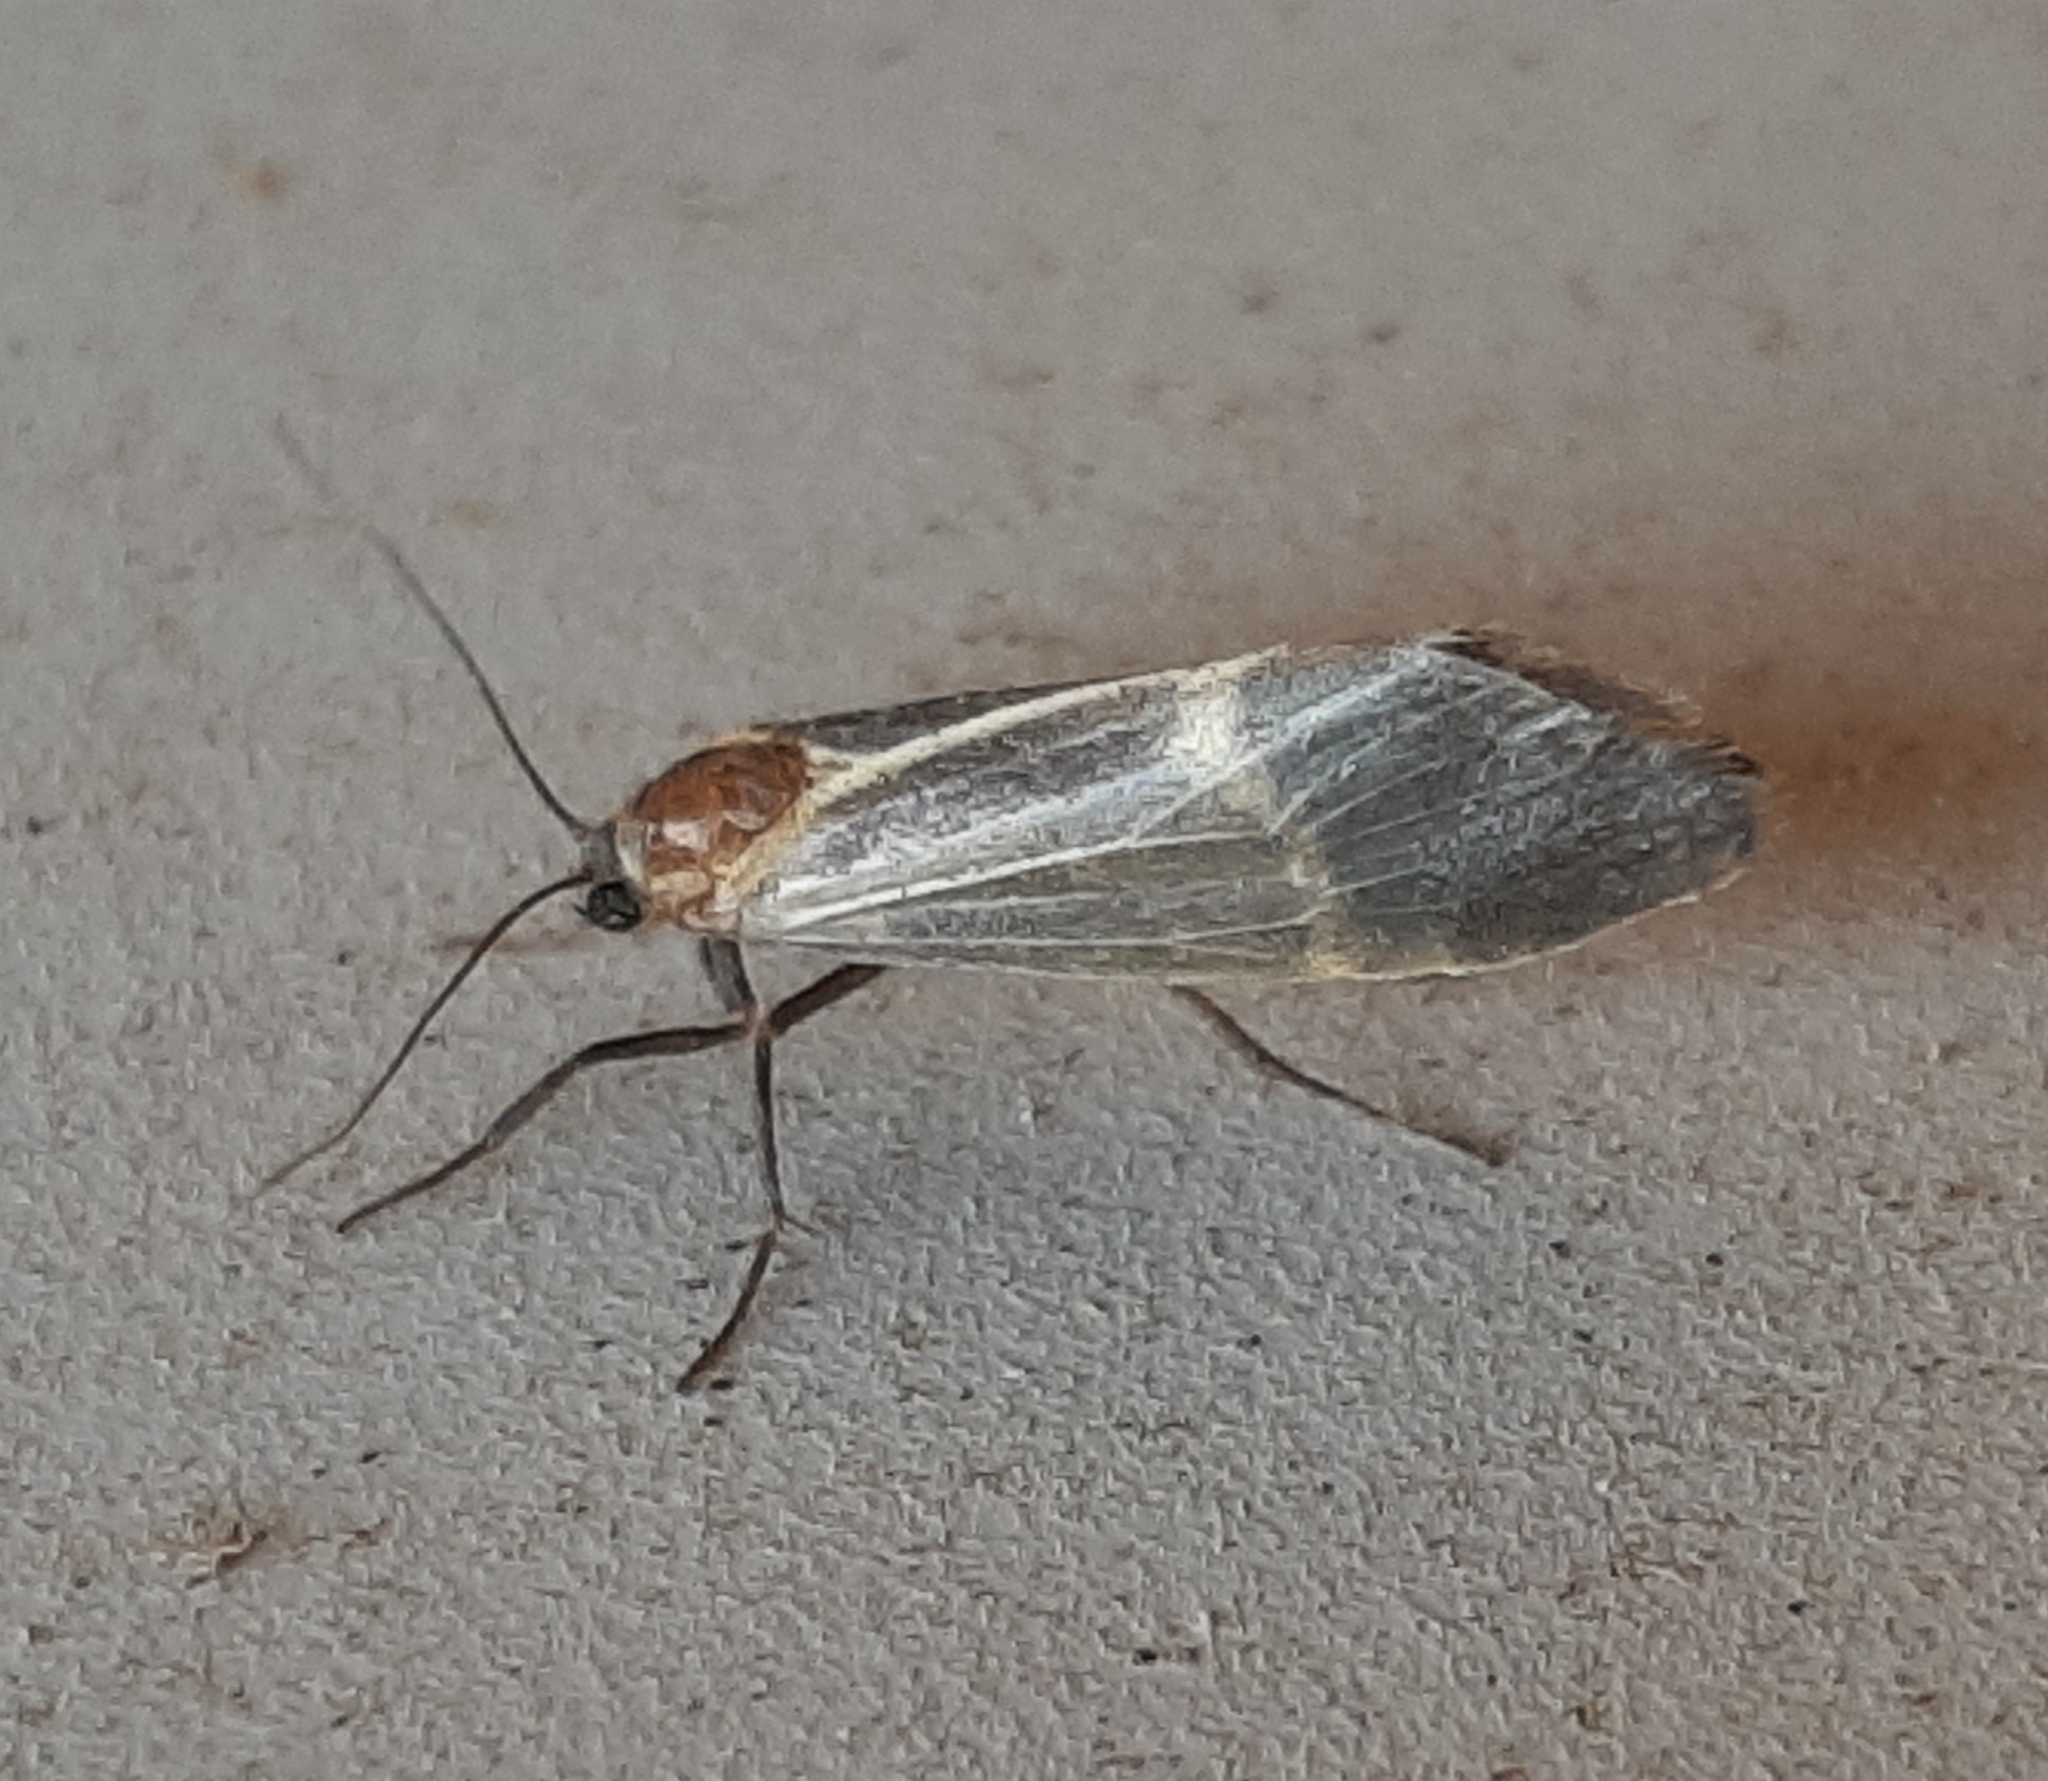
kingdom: Animalia
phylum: Arthropoda
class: Insecta
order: Lepidoptera
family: Erebidae
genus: Cisthene
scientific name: Cisthene barnesii
